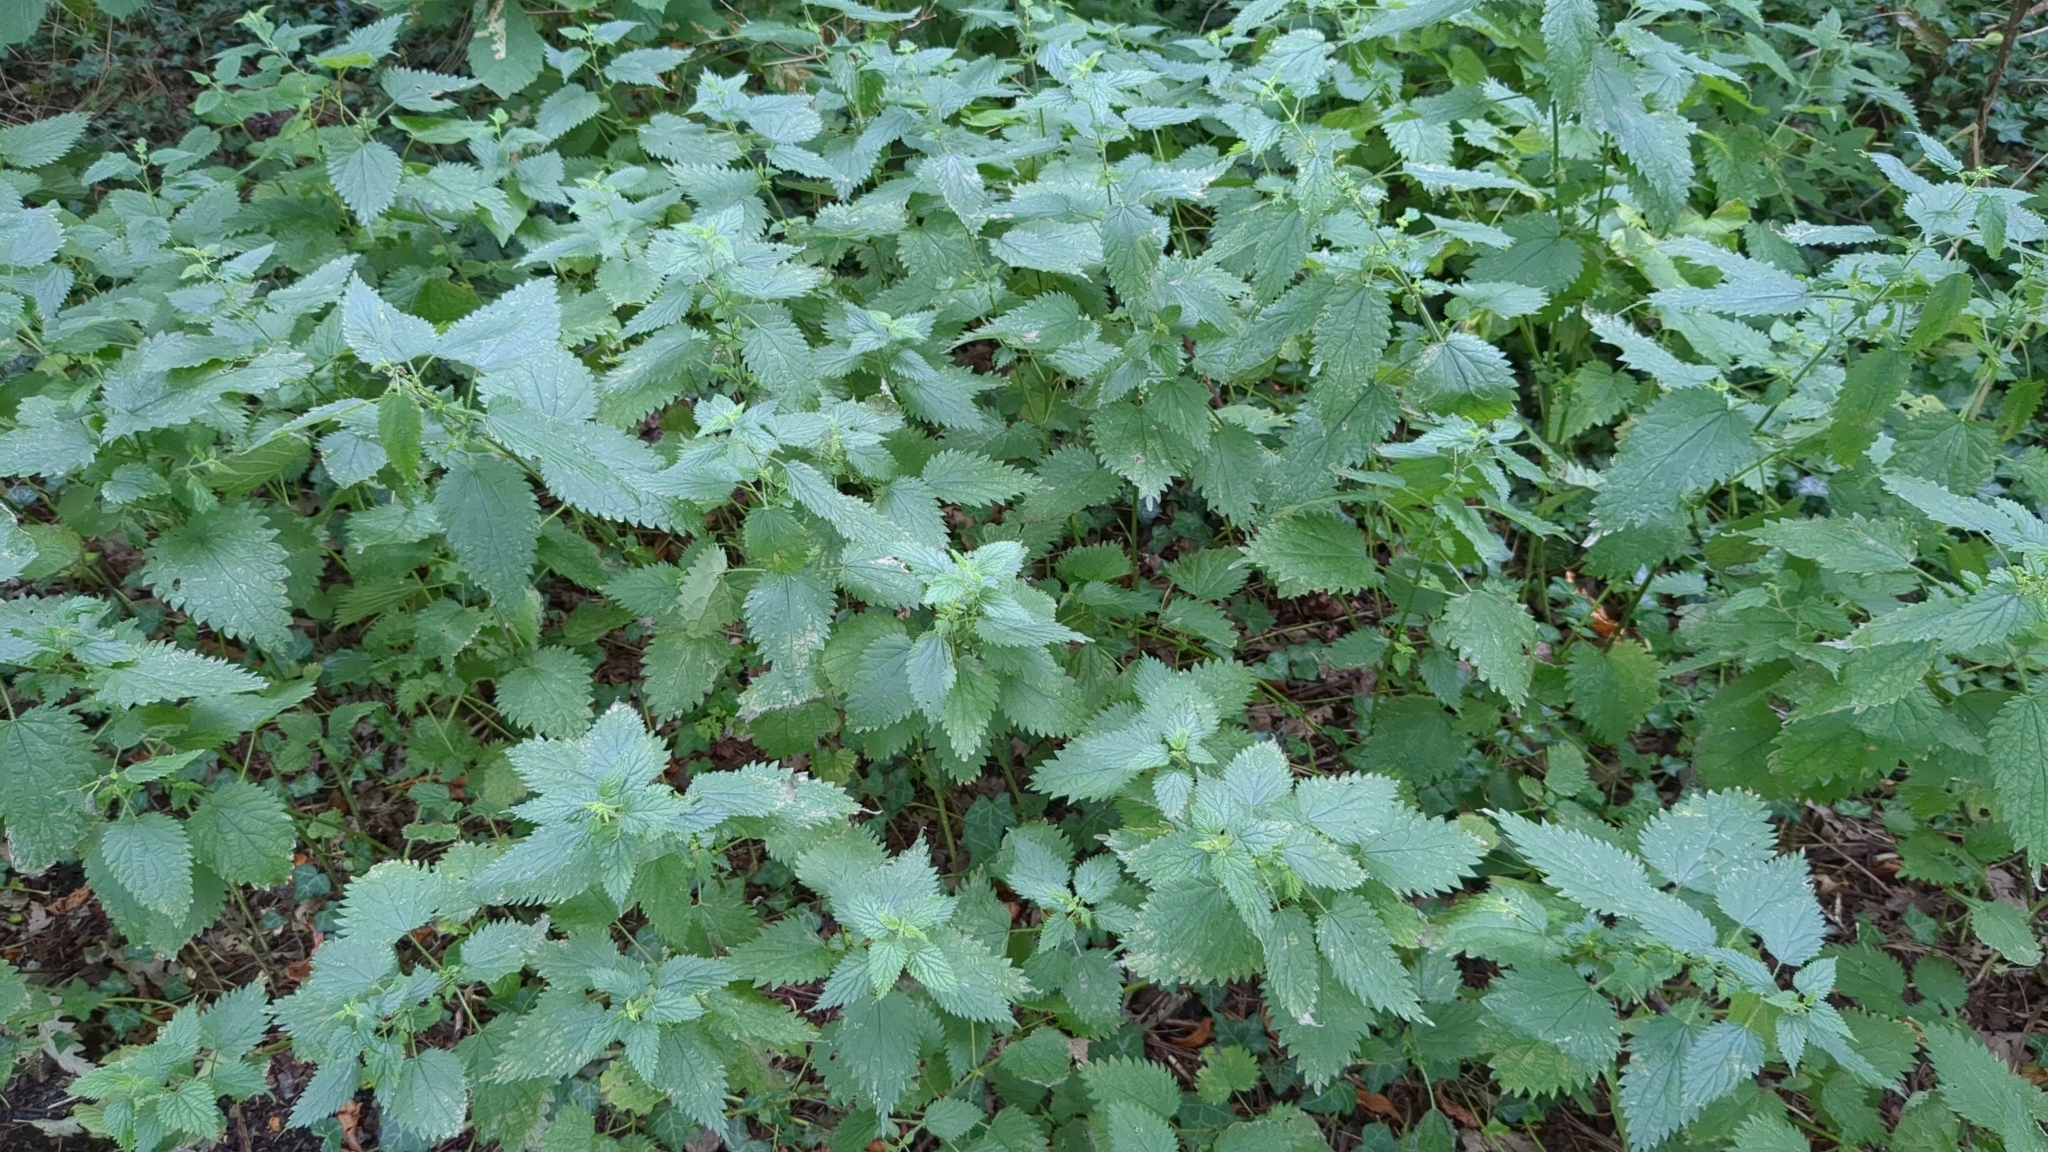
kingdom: Plantae
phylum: Tracheophyta
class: Magnoliopsida
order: Rosales
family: Urticaceae
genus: Urtica
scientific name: Urtica dioica
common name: Common nettle
